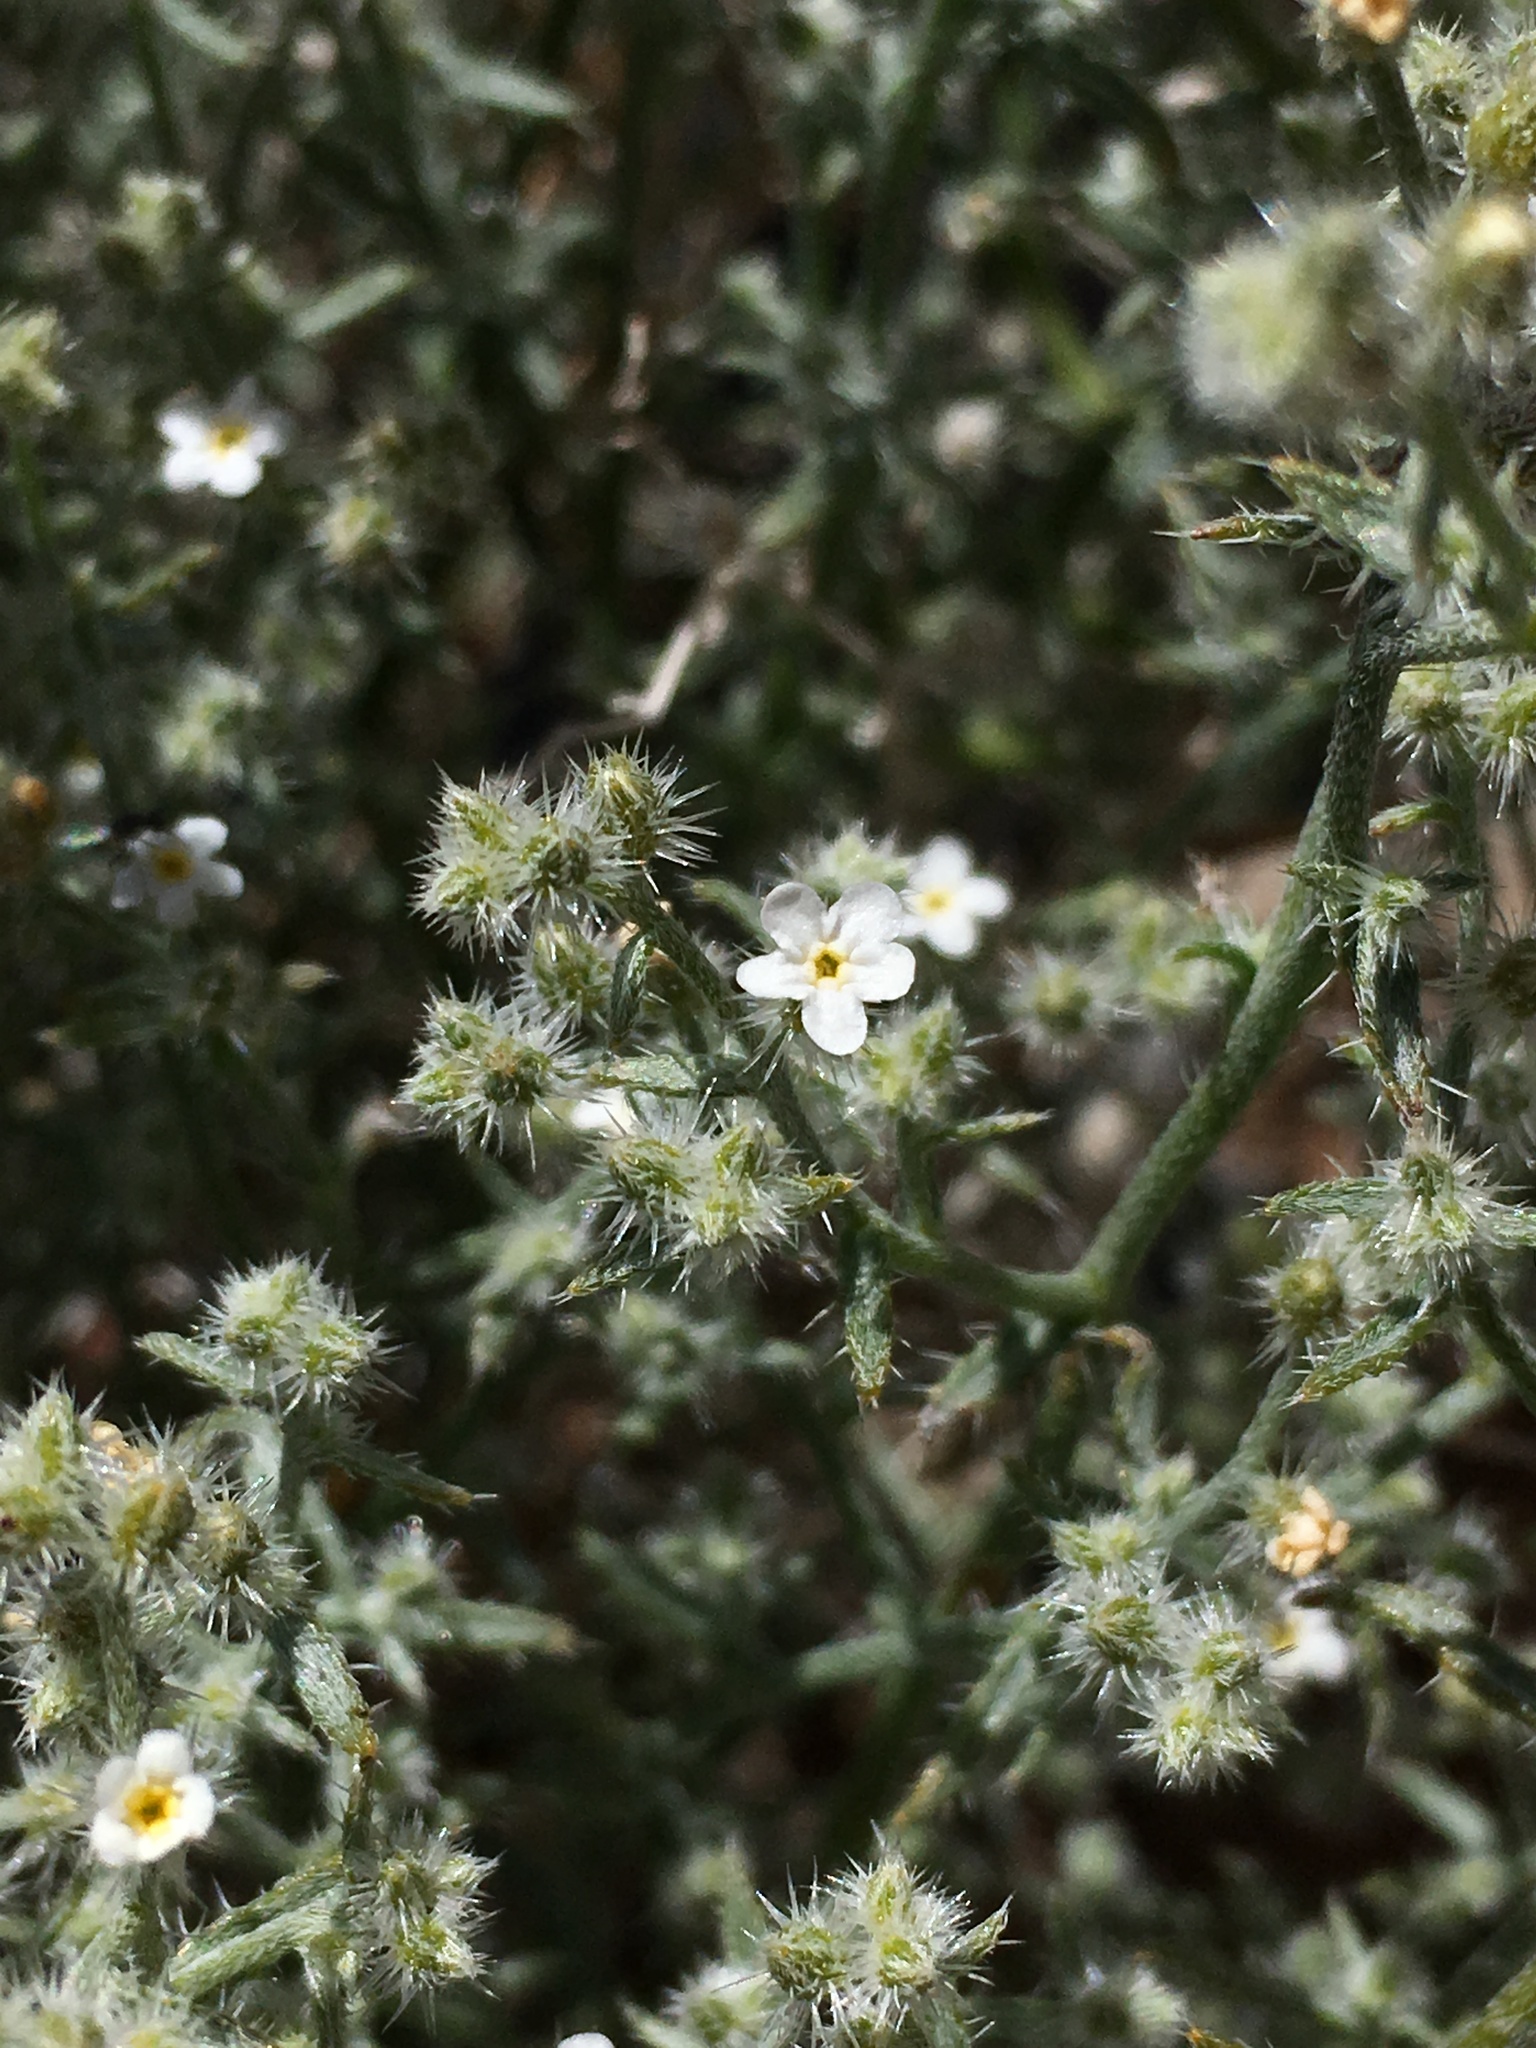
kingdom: Plantae
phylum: Tracheophyta
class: Magnoliopsida
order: Boraginales
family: Boraginaceae
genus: Johnstonella
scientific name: Johnstonella racemosa
